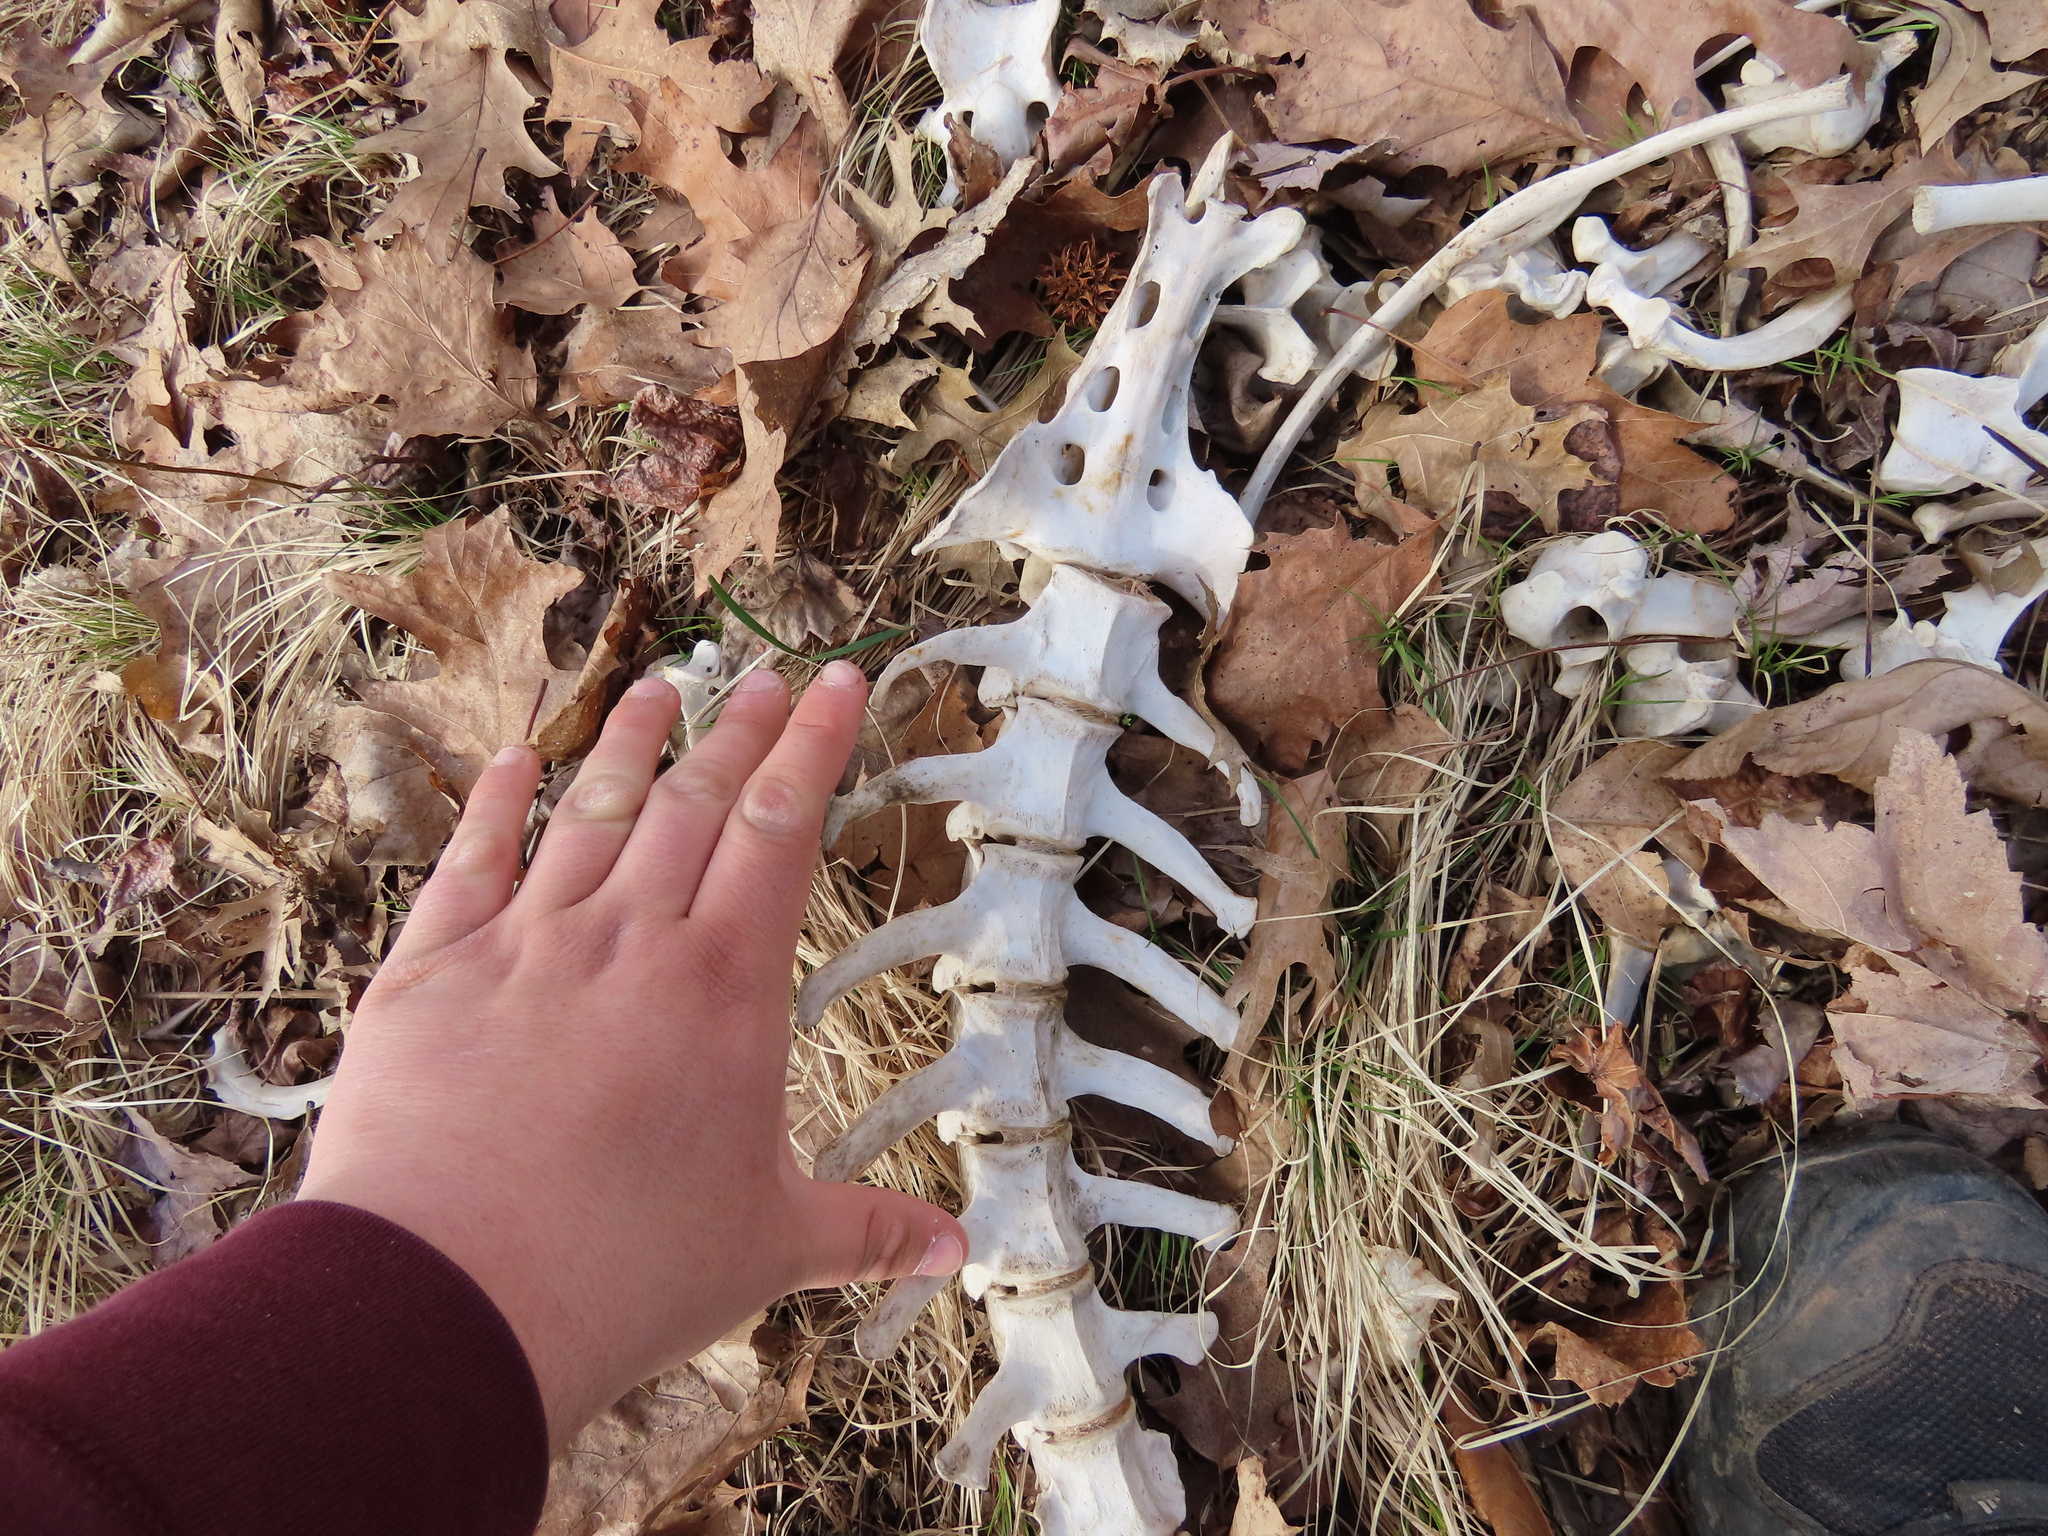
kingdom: Animalia
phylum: Chordata
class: Mammalia
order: Artiodactyla
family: Cervidae
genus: Odocoileus
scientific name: Odocoileus virginianus
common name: White-tailed deer
